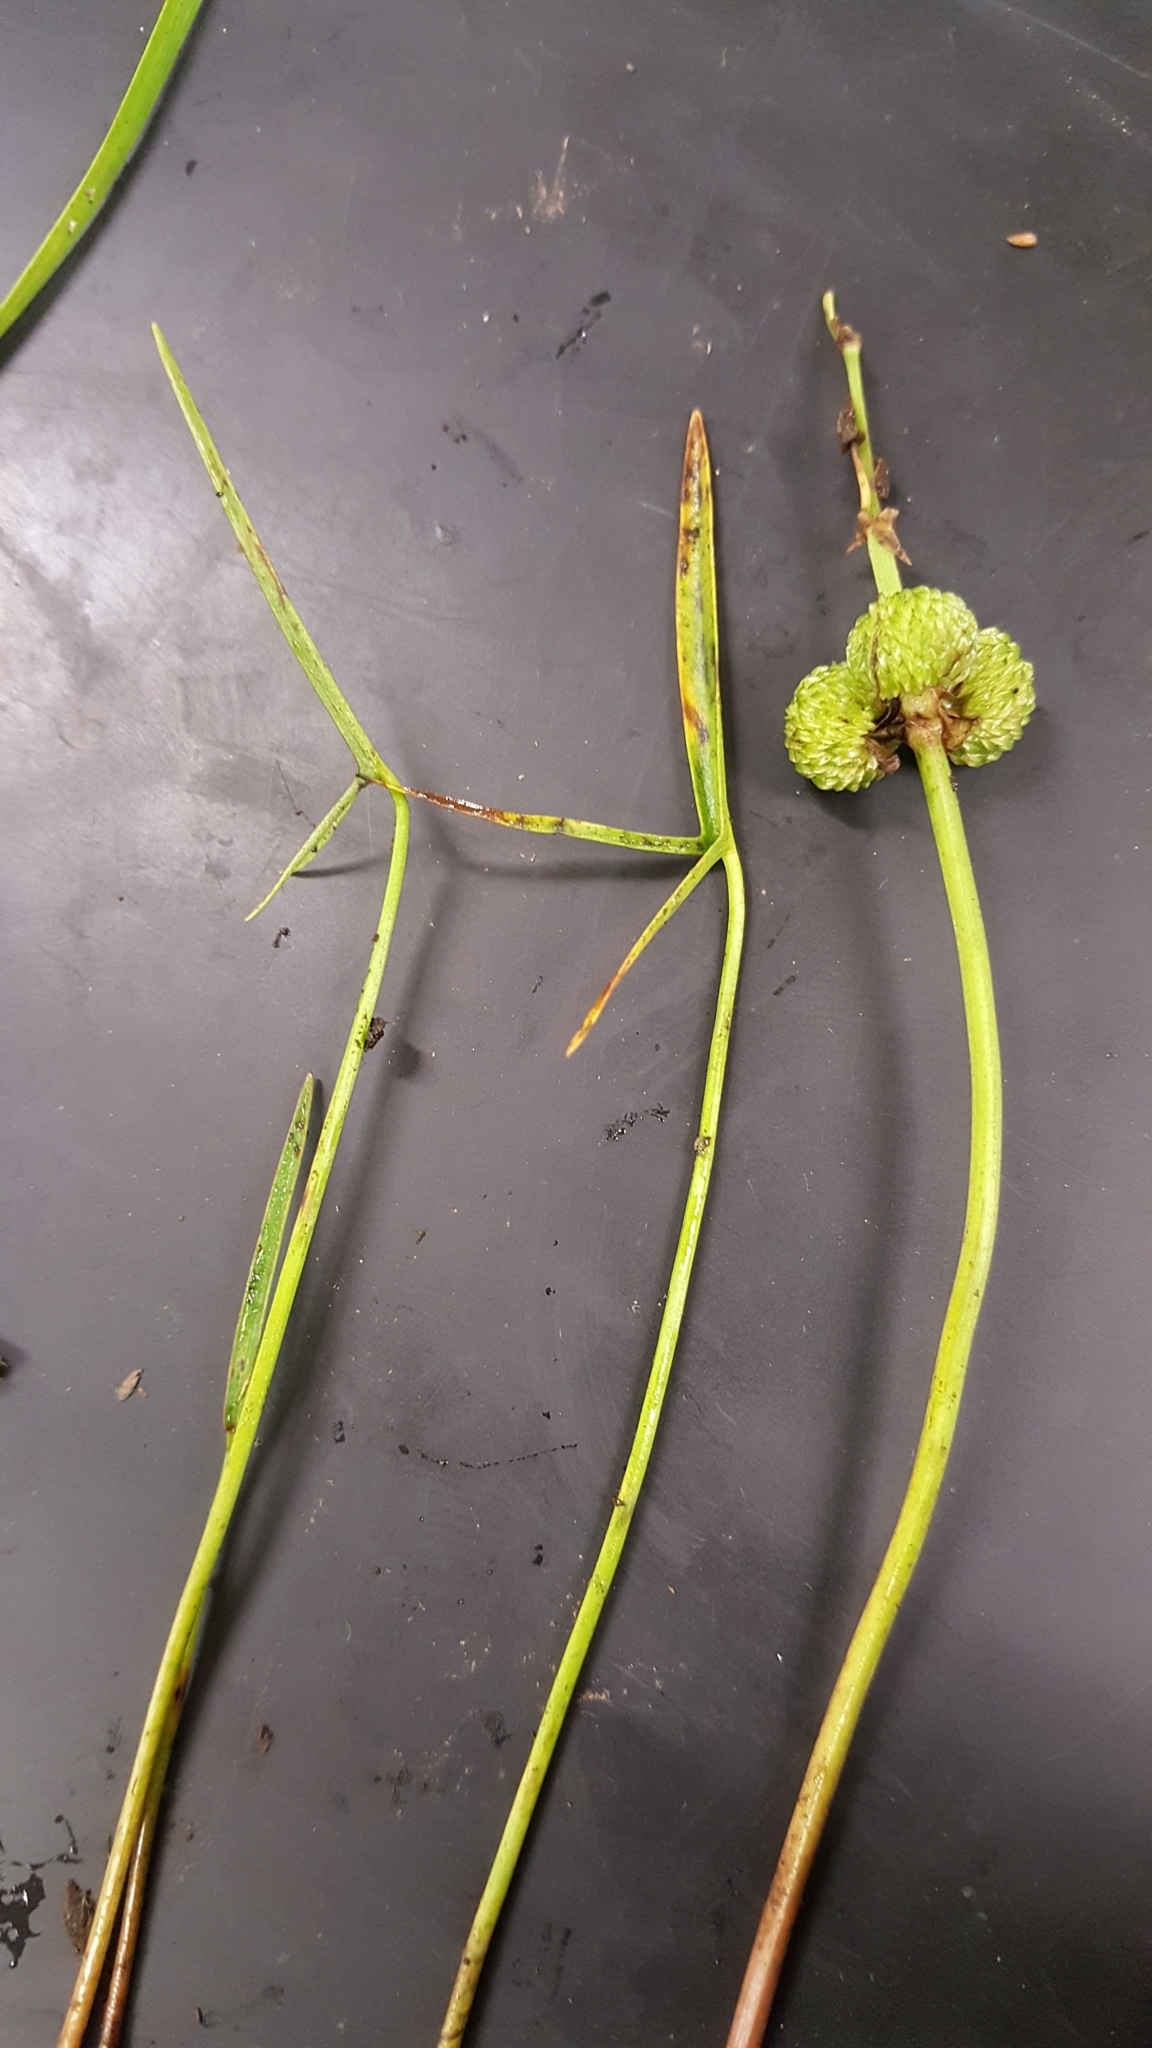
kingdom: Plantae
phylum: Tracheophyta
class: Liliopsida
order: Alismatales
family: Alismataceae
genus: Sagittaria
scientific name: Sagittaria latifolia
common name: Duck-potato
